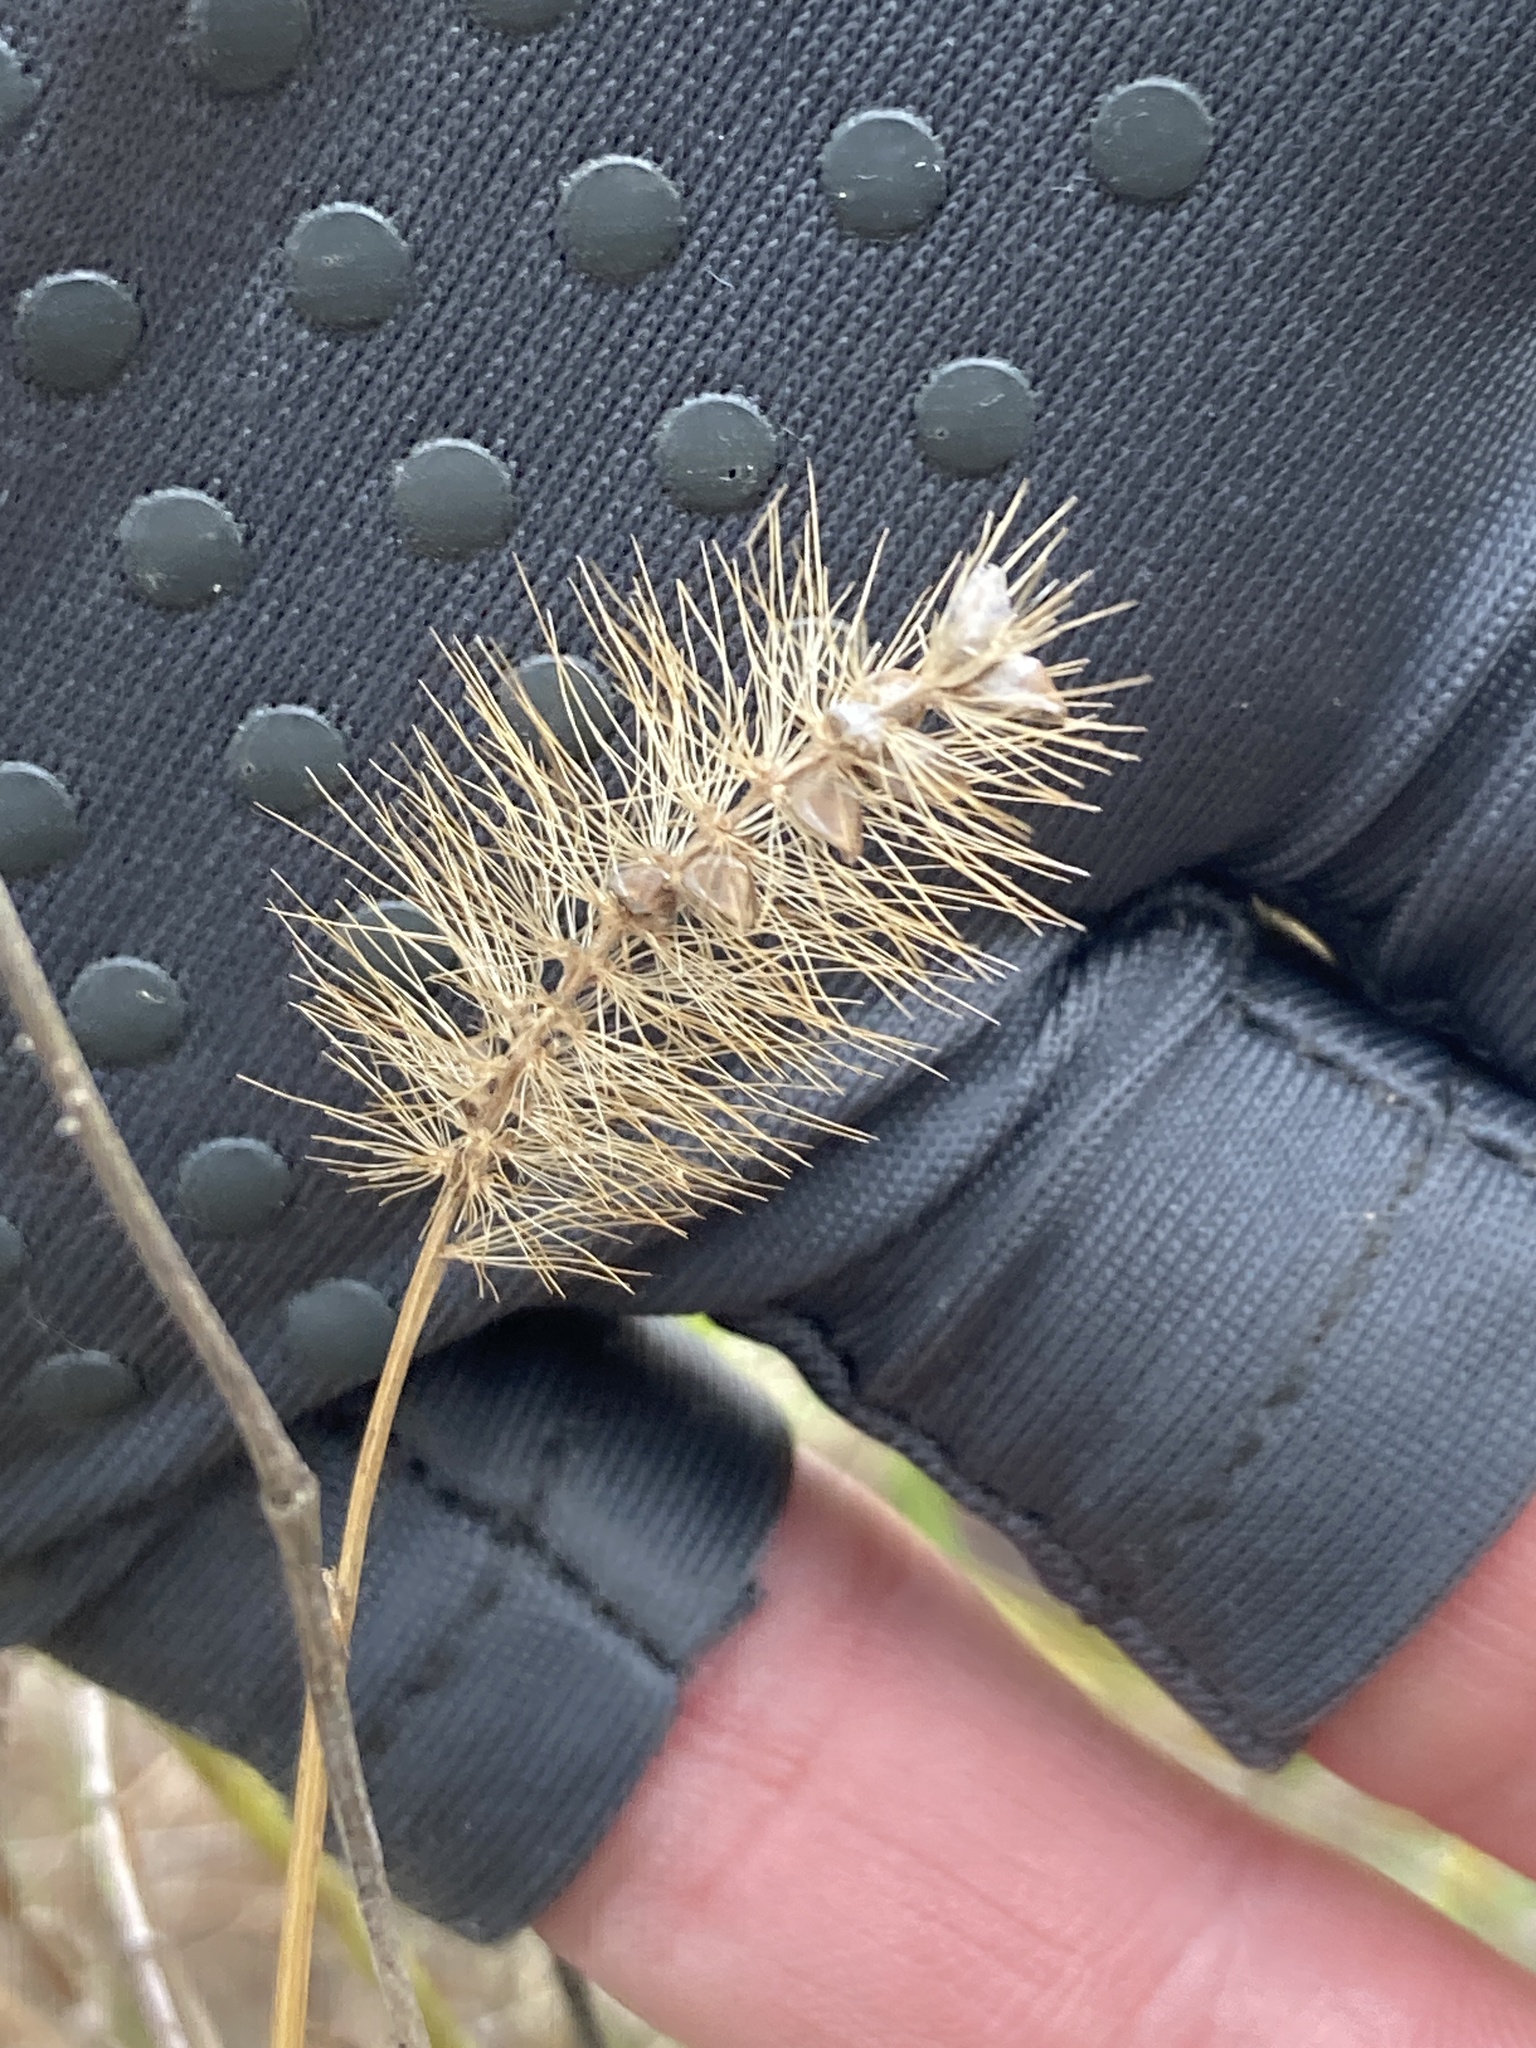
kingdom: Plantae
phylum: Tracheophyta
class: Liliopsida
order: Poales
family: Poaceae
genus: Setaria
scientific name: Setaria pumila
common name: Yellow bristle-grass
